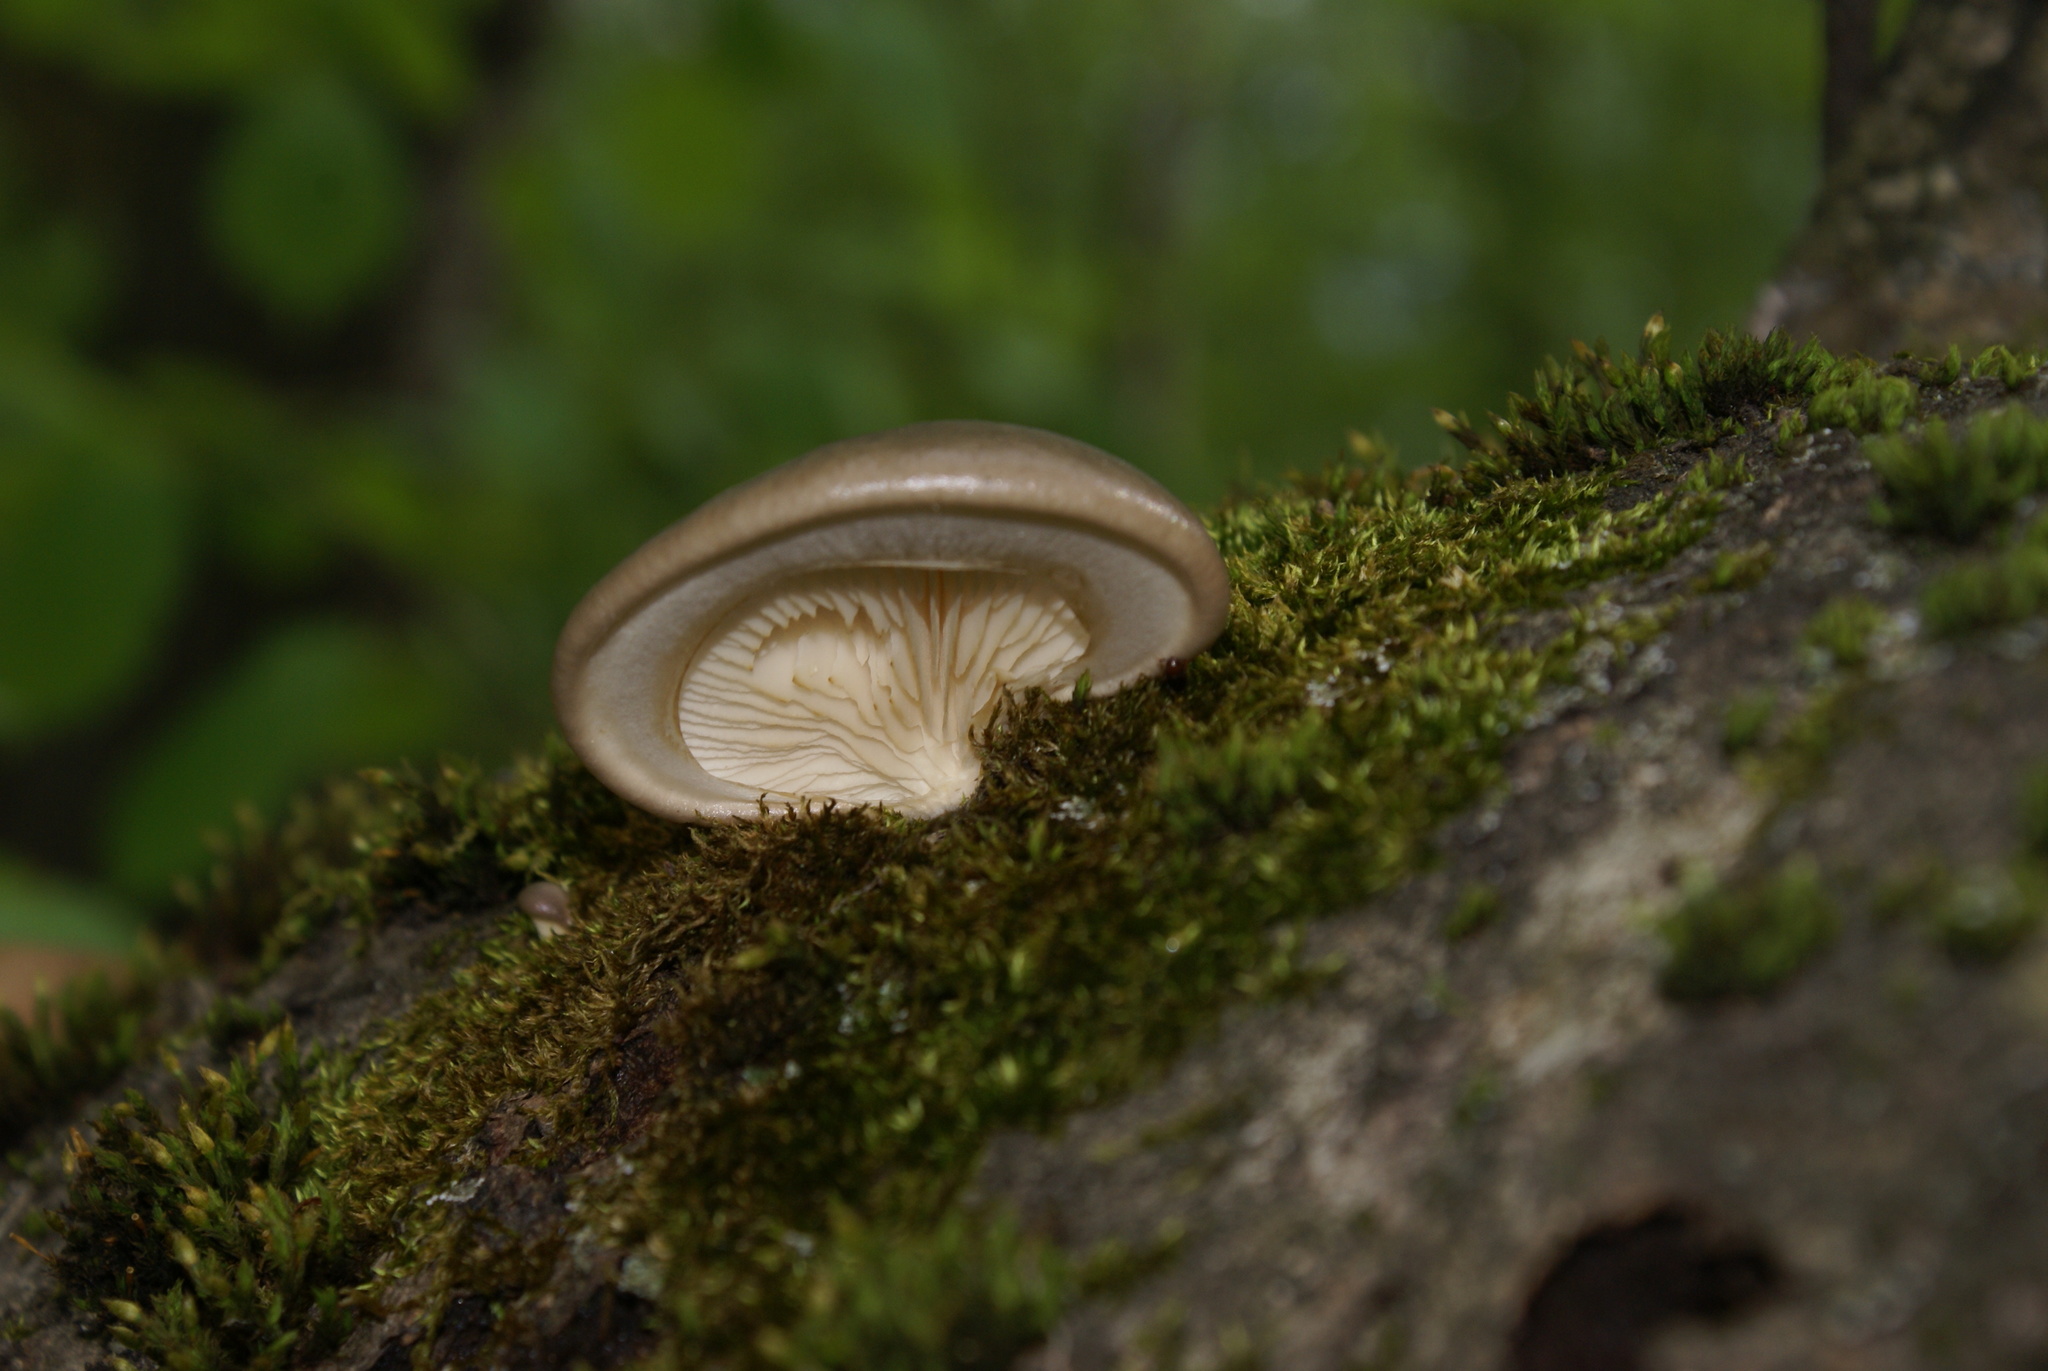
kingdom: Fungi
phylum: Basidiomycota
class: Agaricomycetes
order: Agaricales
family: Pleurotaceae
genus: Pleurotus
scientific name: Pleurotus calyptratus
